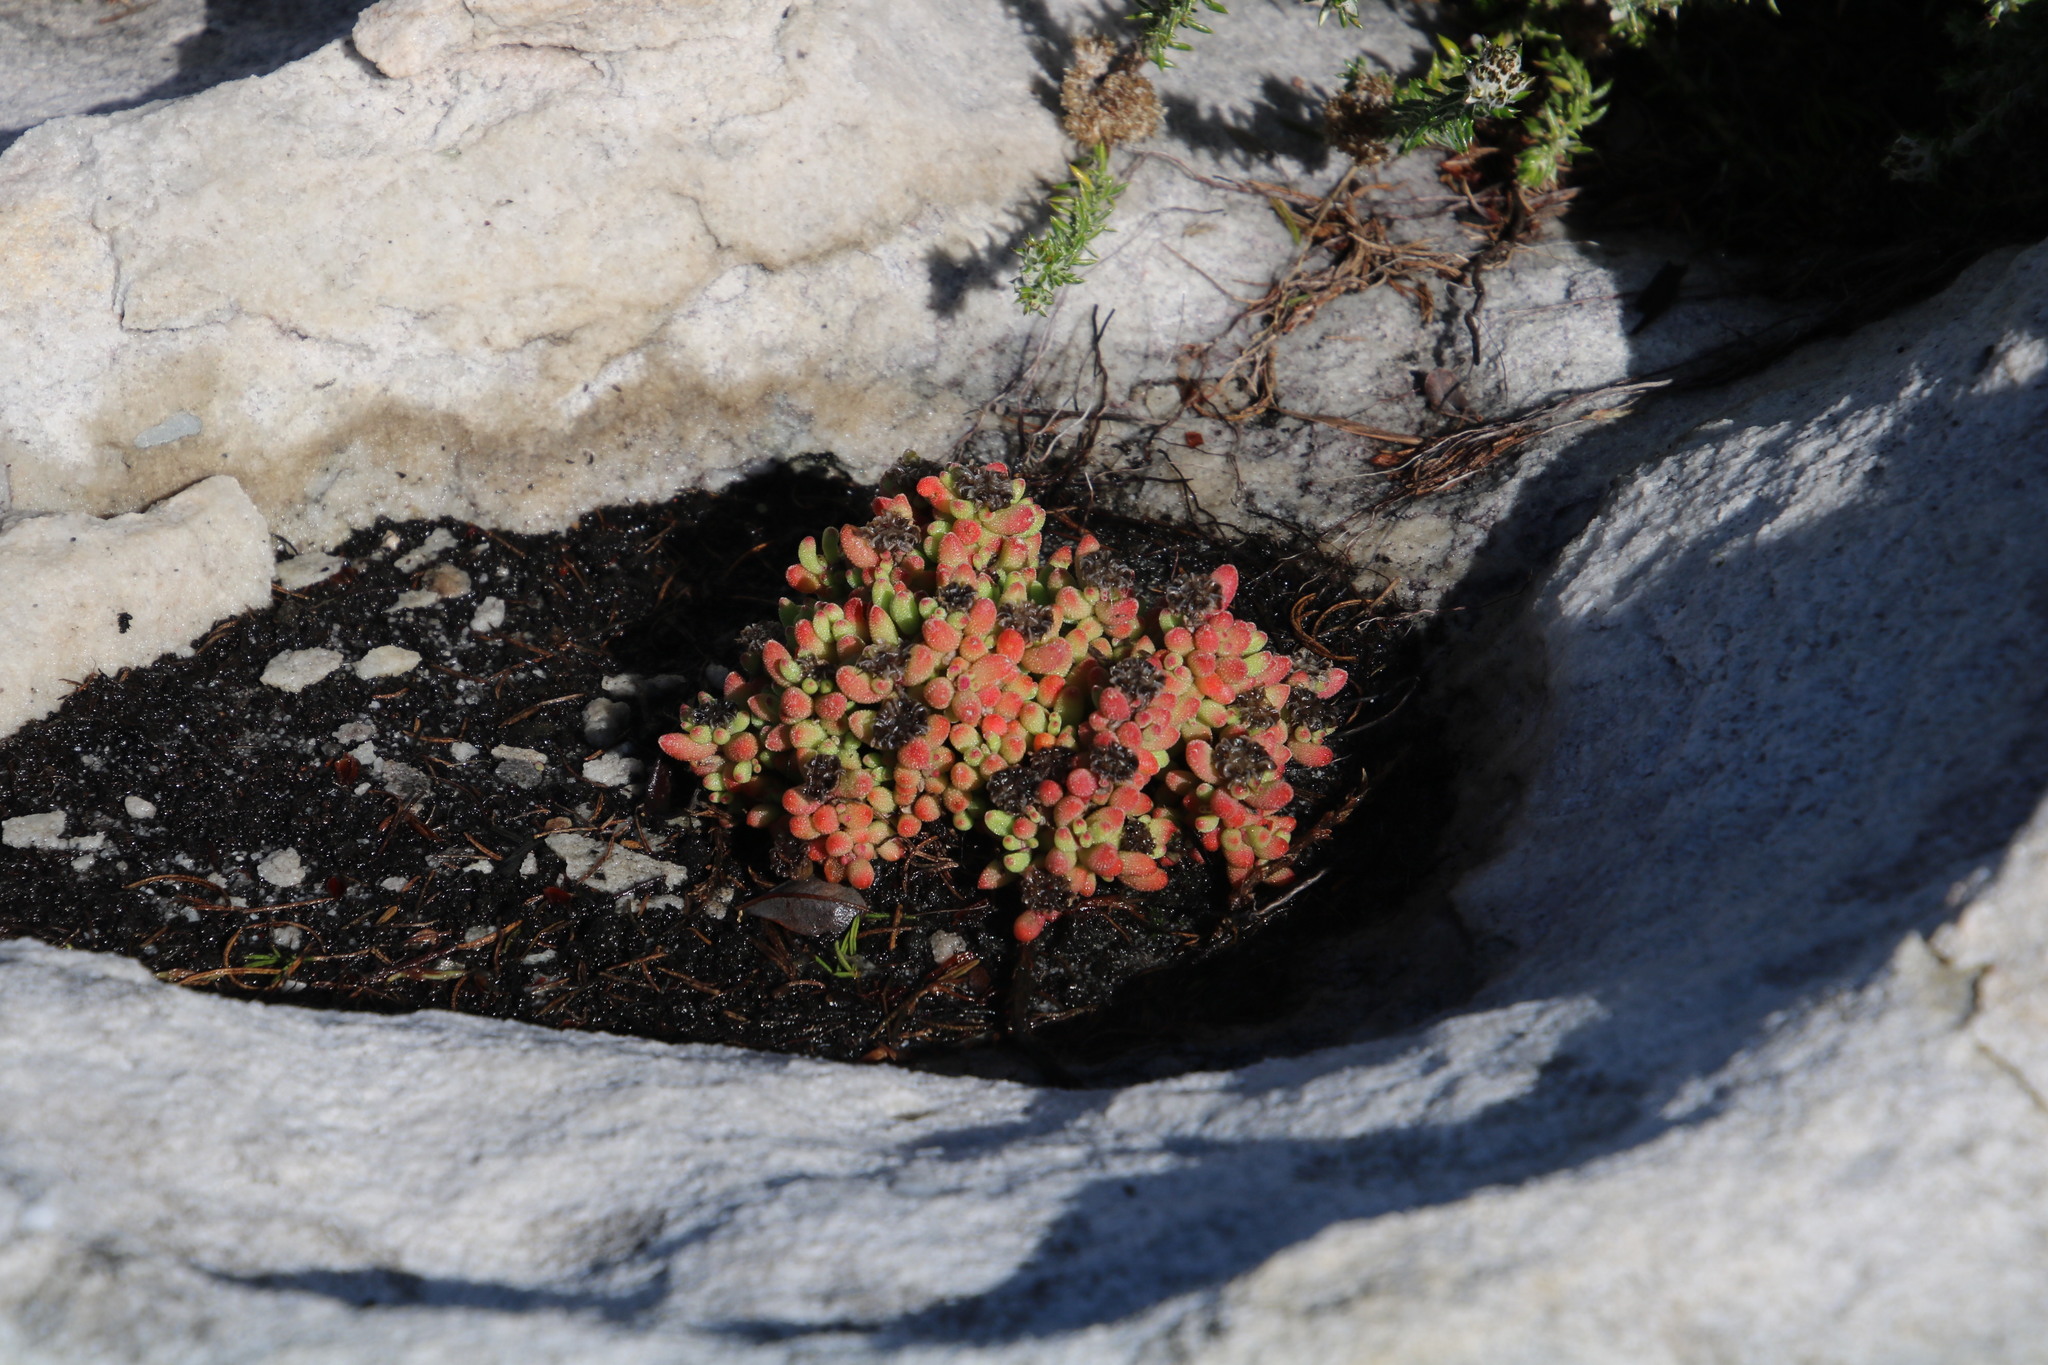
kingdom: Plantae
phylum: Tracheophyta
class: Magnoliopsida
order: Caryophyllales
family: Aizoaceae
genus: Drosanthemum
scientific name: Drosanthemum stokoei
